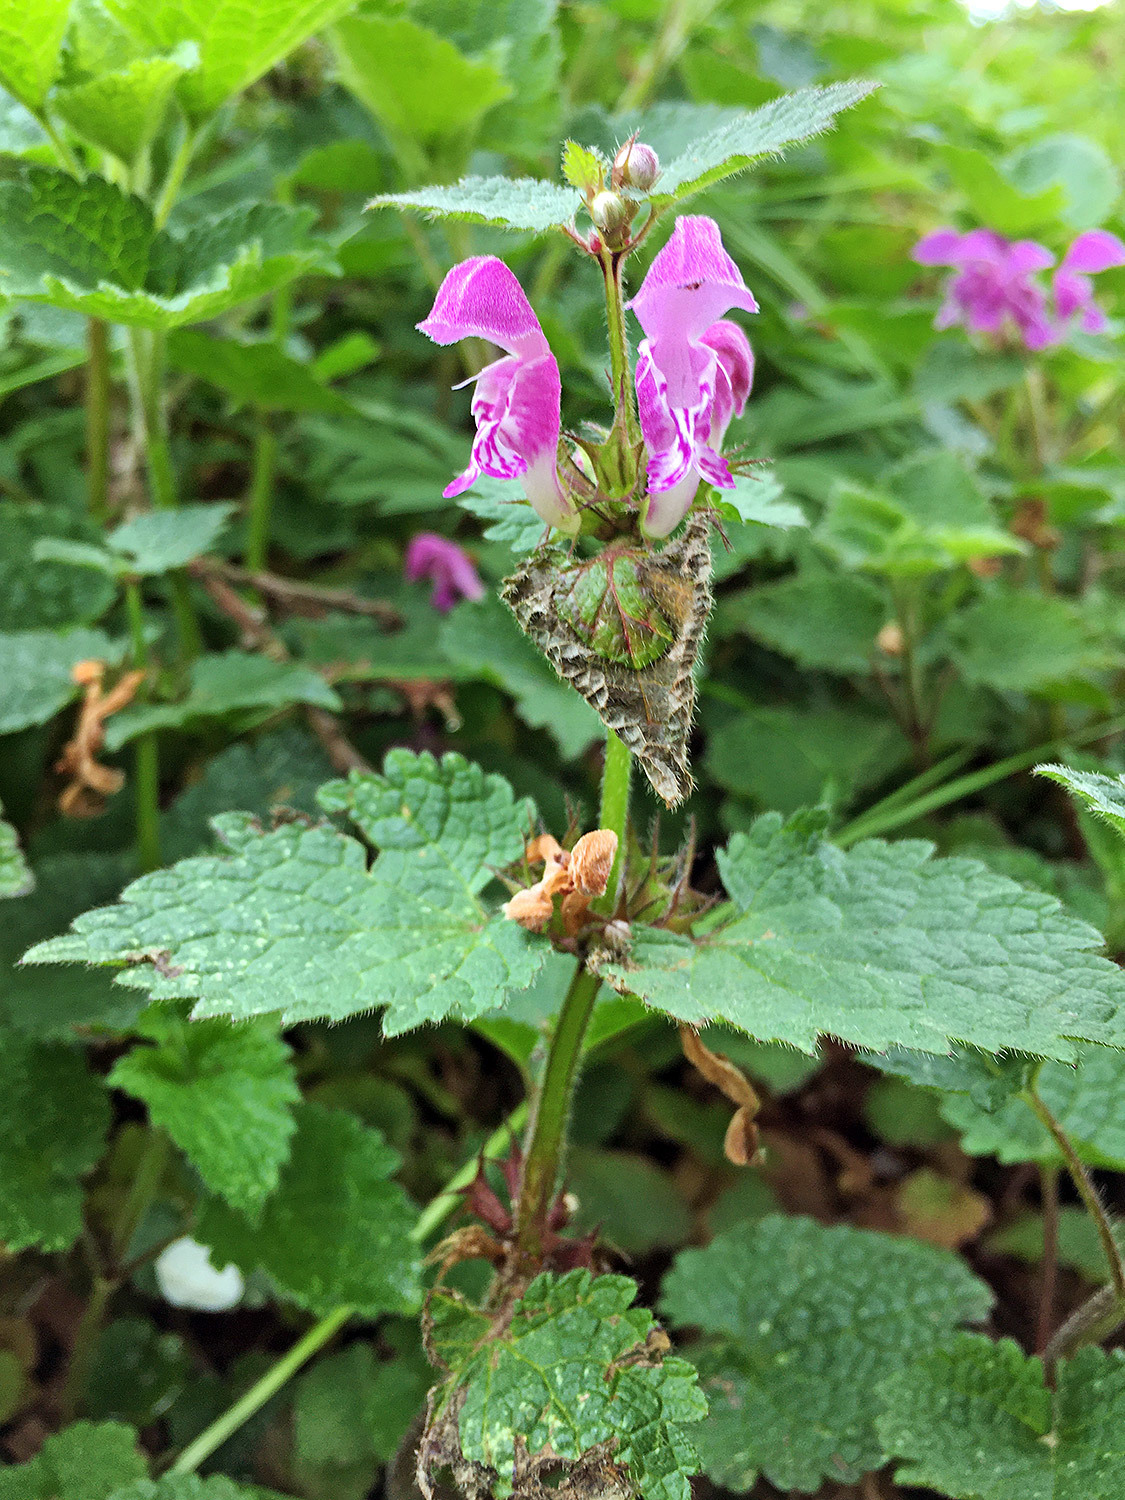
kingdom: Plantae
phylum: Tracheophyta
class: Magnoliopsida
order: Lamiales
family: Lamiaceae
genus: Lamium
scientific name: Lamium maculatum
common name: Spotted dead-nettle
